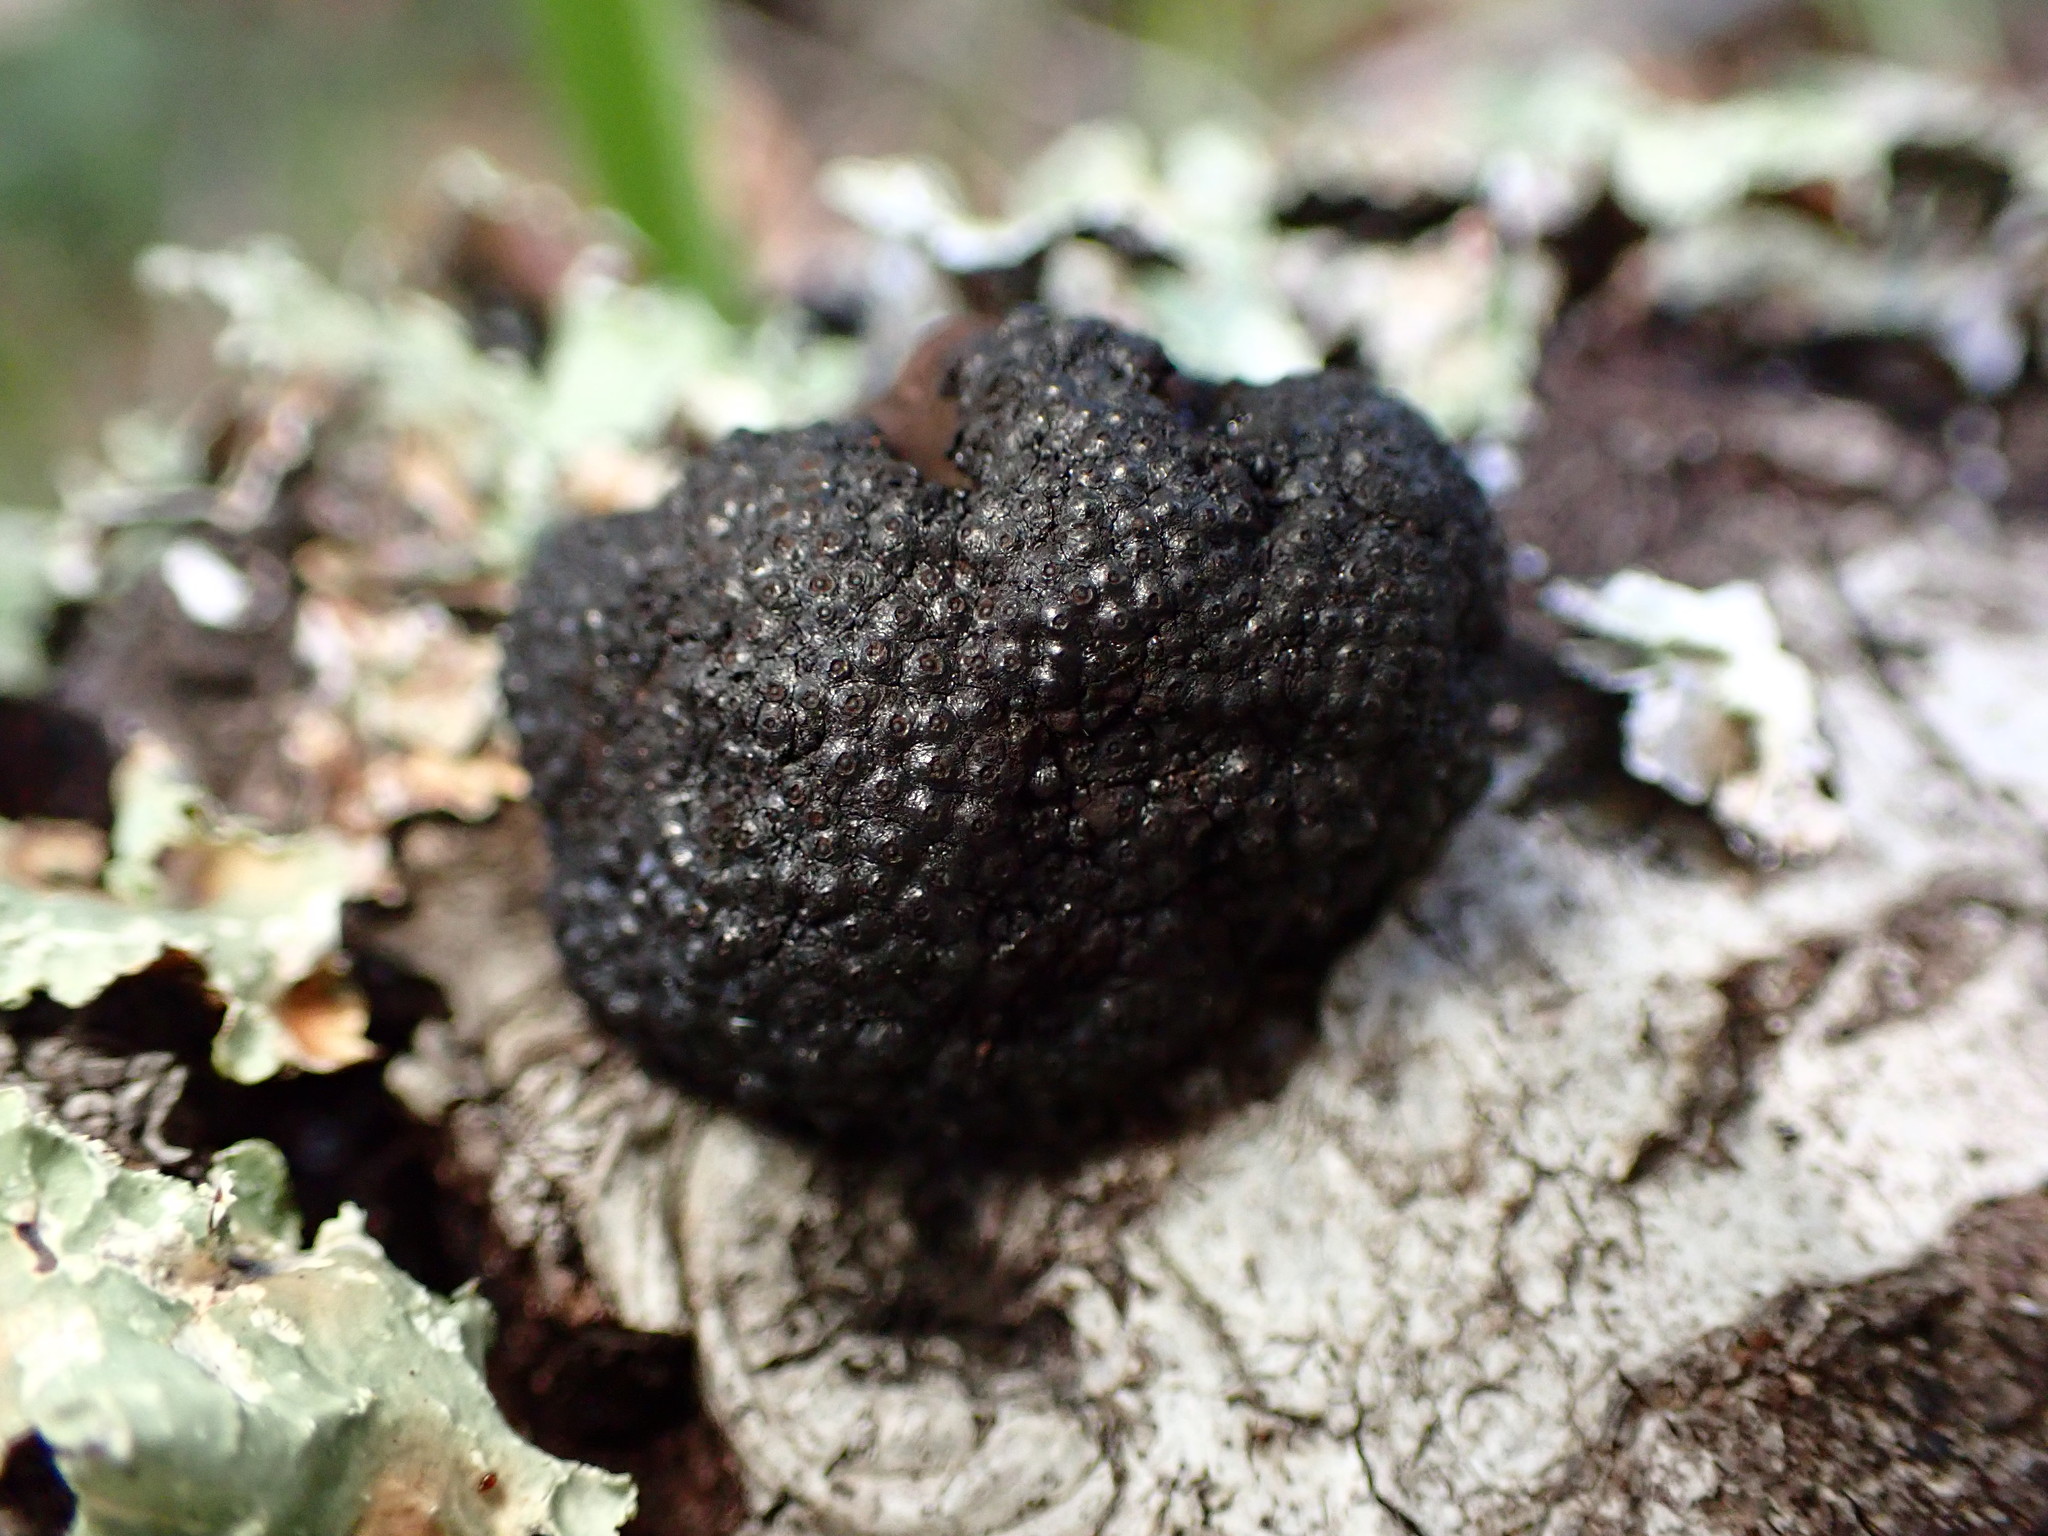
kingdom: Fungi
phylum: Ascomycota
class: Sordariomycetes
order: Xylariales
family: Hypoxylaceae
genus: Annulohypoxylon
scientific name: Annulohypoxylon thouarsianum
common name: Cramp balls
